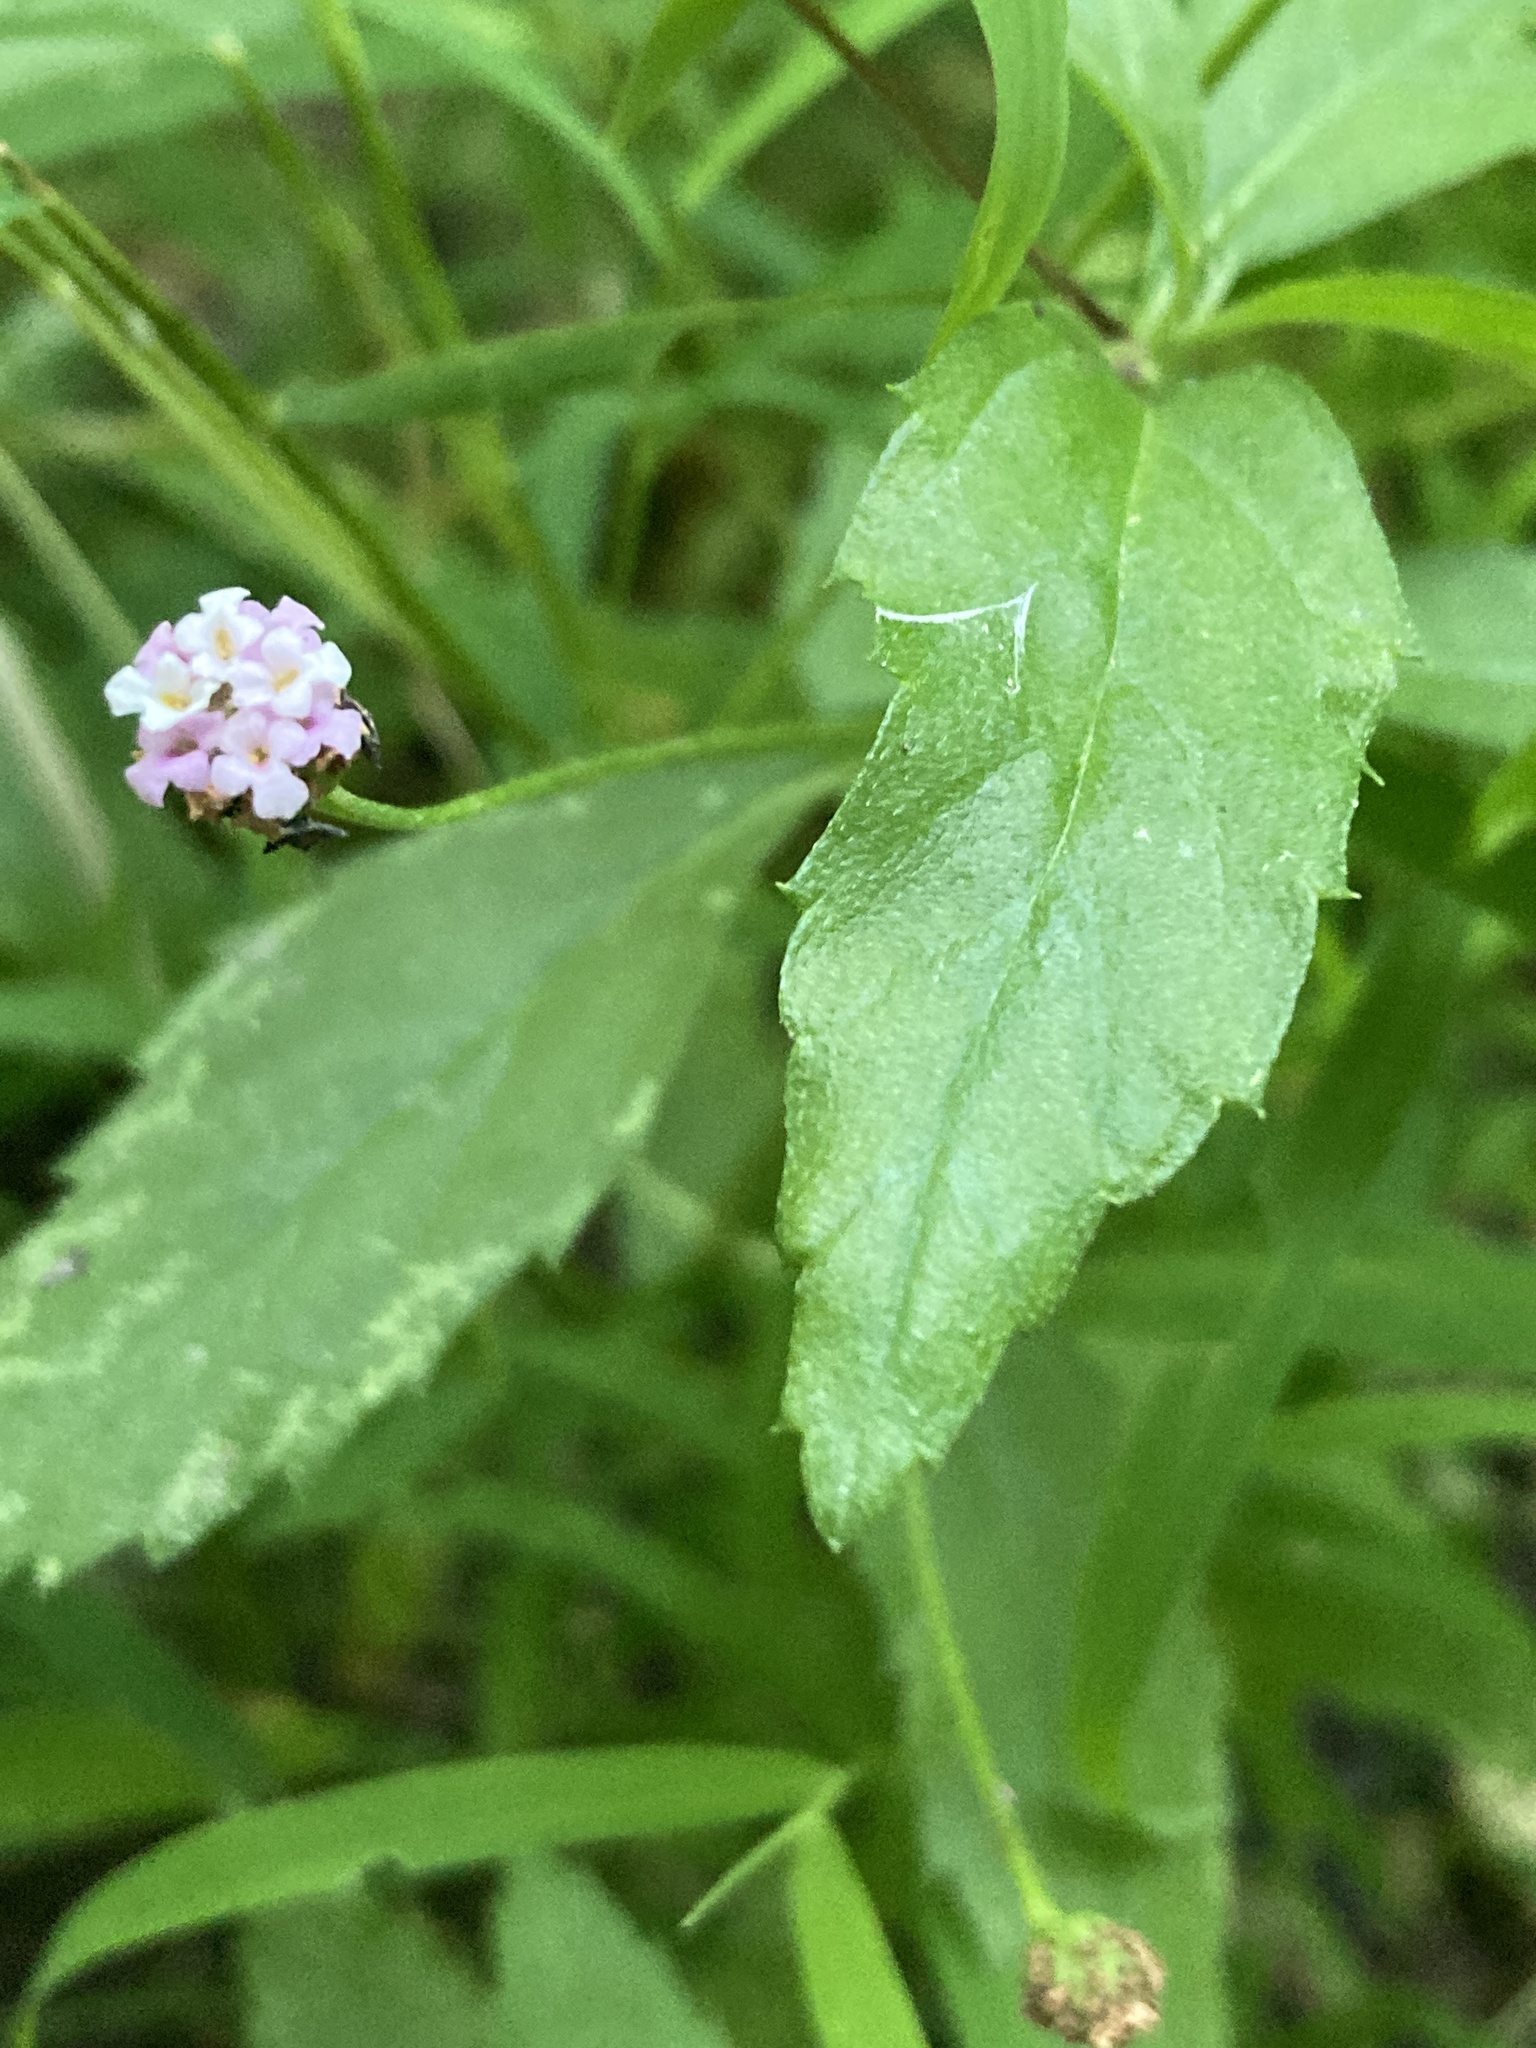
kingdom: Plantae
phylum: Tracheophyta
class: Magnoliopsida
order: Lamiales
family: Verbenaceae
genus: Phyla
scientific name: Phyla lanceolata
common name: Northern fogfruit
